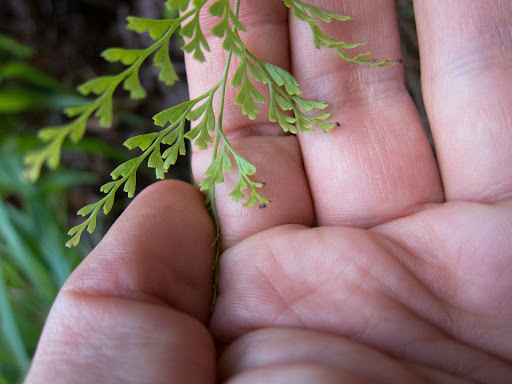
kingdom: Plantae
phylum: Tracheophyta
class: Polypodiopsida
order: Polypodiales
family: Lindsaeaceae
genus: Odontosoria
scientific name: Odontosoria chinensis
